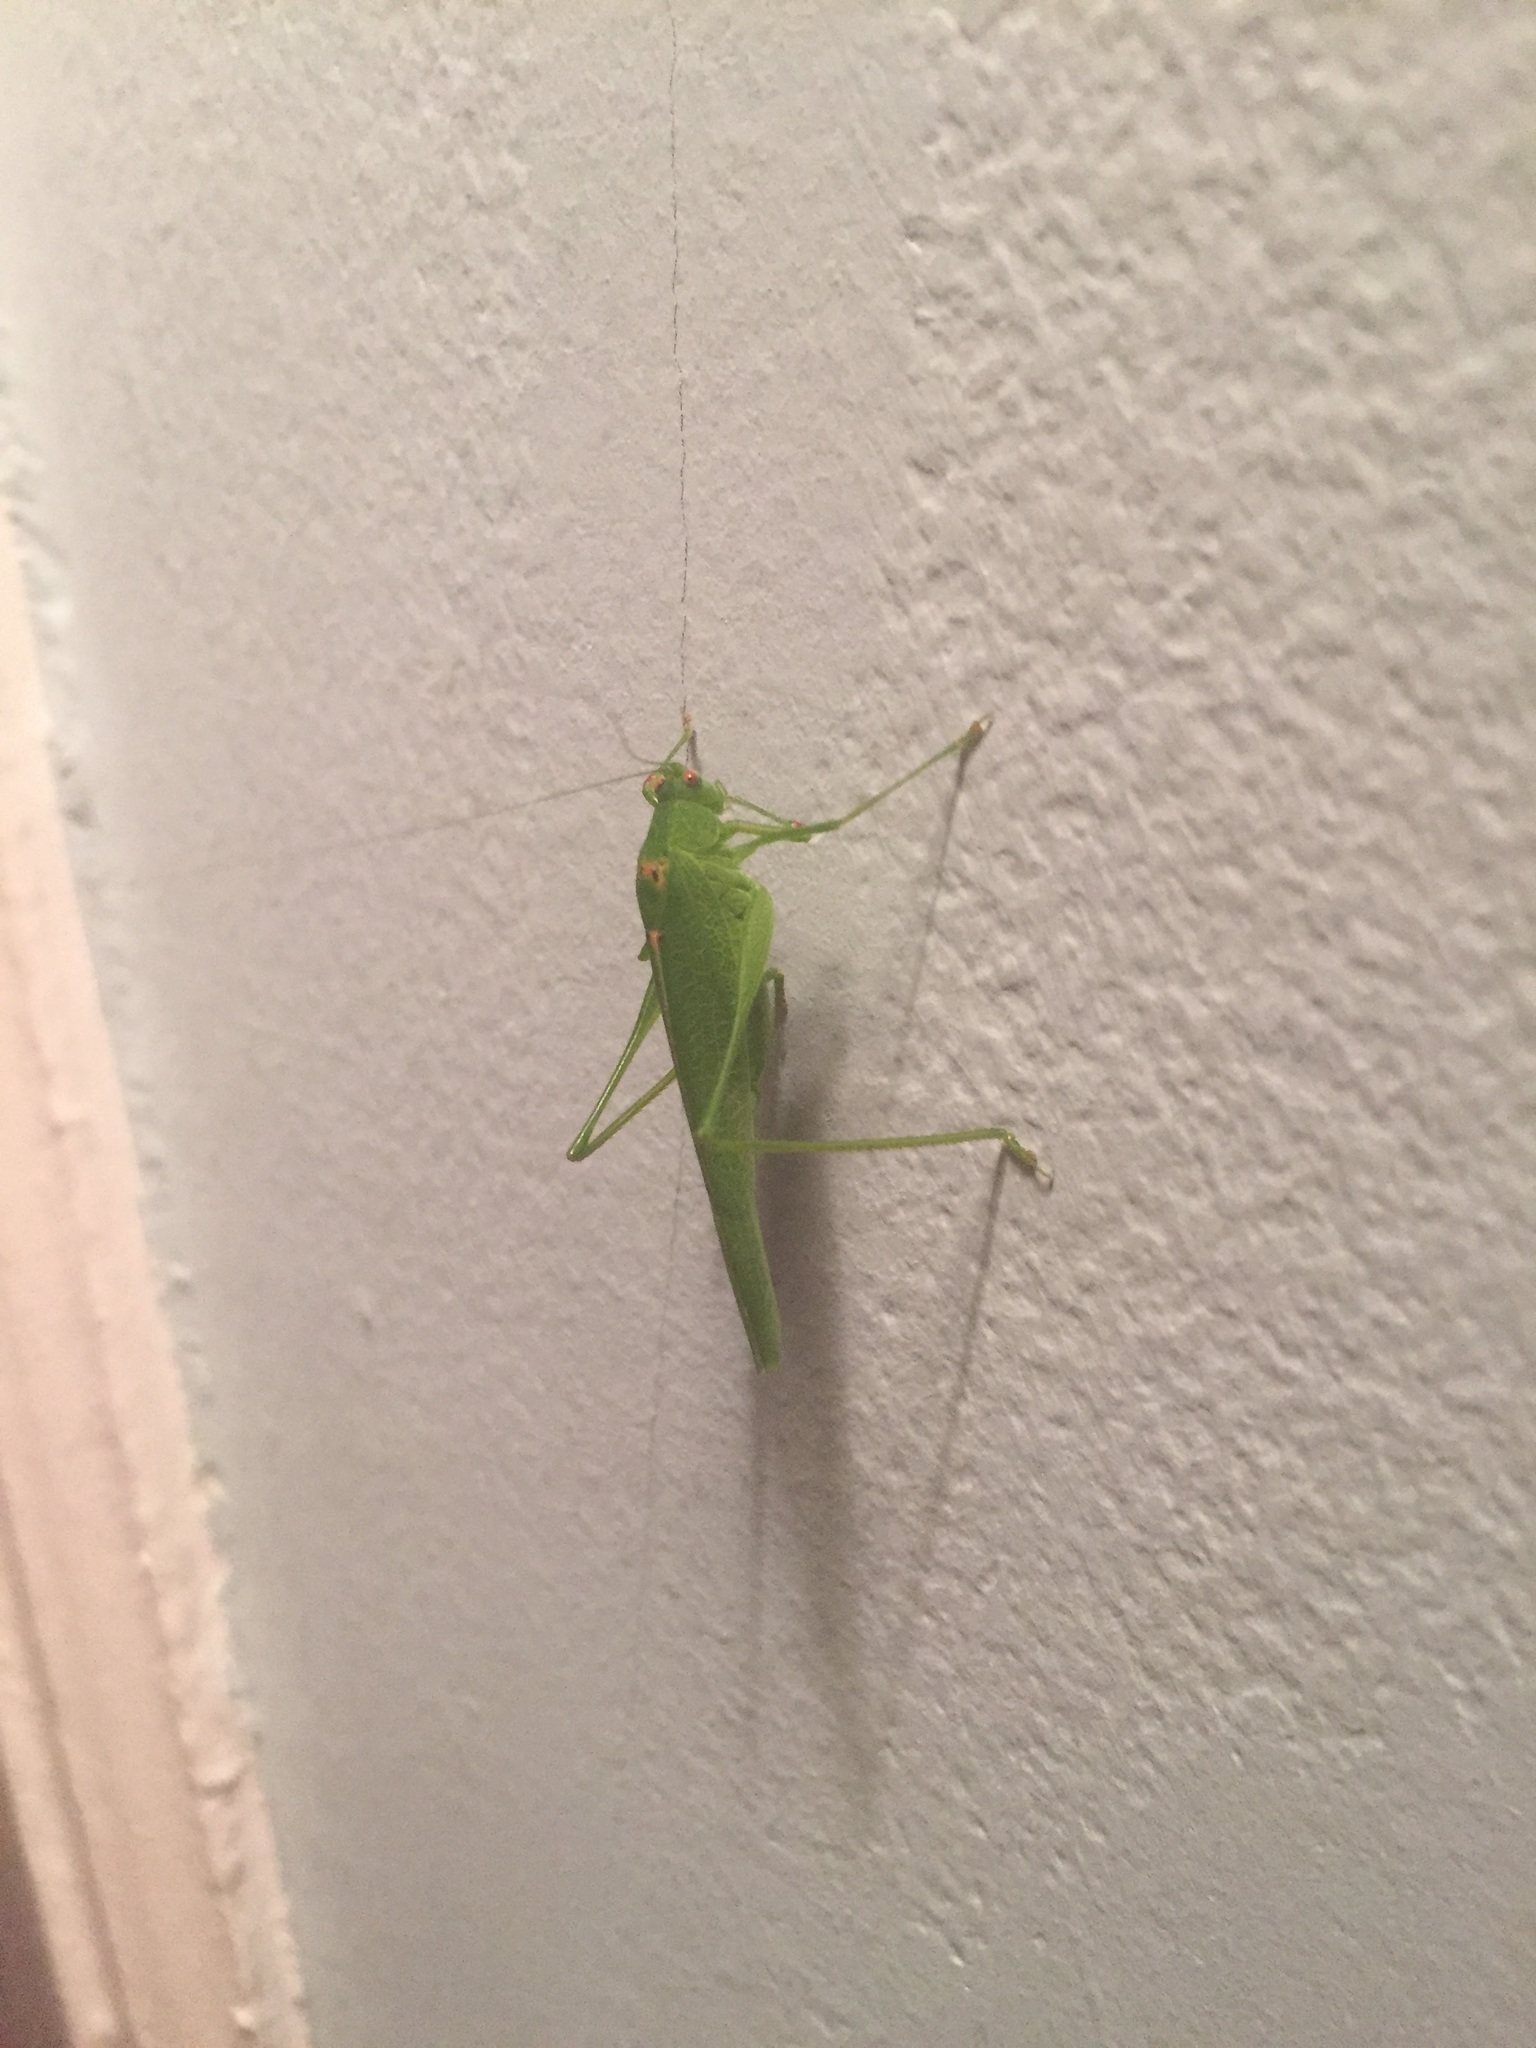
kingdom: Animalia
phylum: Arthropoda
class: Insecta
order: Orthoptera
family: Tettigoniidae
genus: Phaneroptera
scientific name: Phaneroptera nana
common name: Southern sickle bush-cricket
